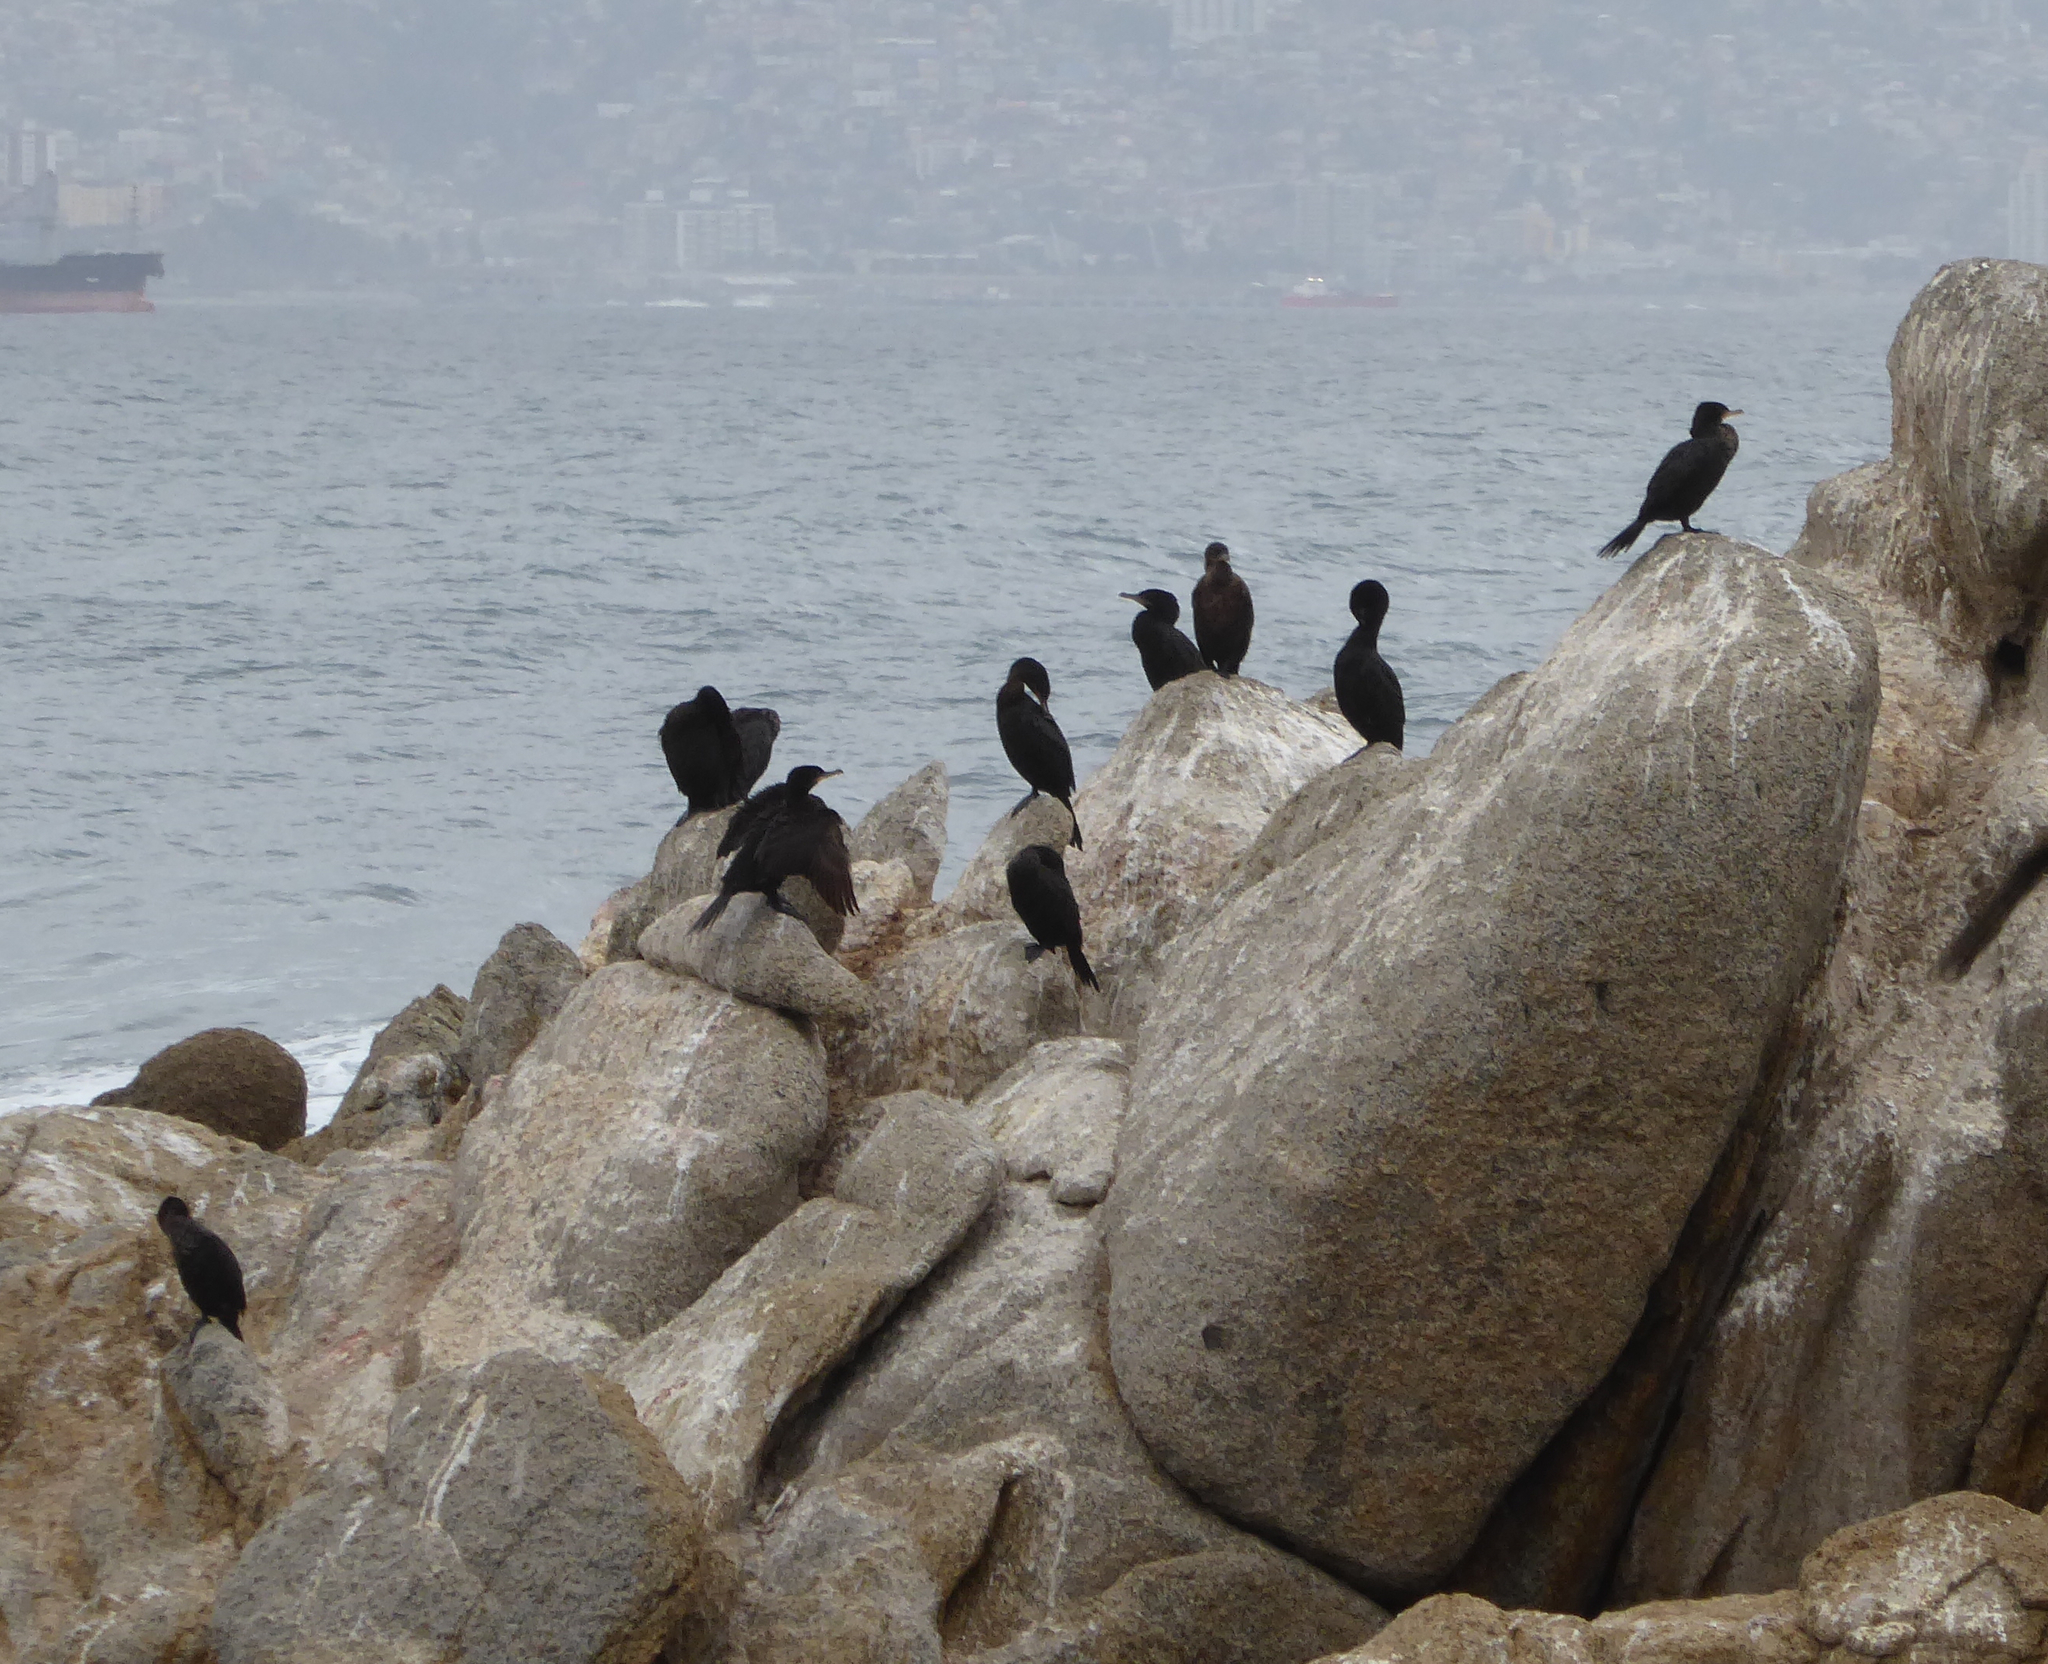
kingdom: Animalia
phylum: Chordata
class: Aves
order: Suliformes
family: Phalacrocoracidae
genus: Phalacrocorax
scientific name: Phalacrocorax brasilianus
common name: Neotropic cormorant
